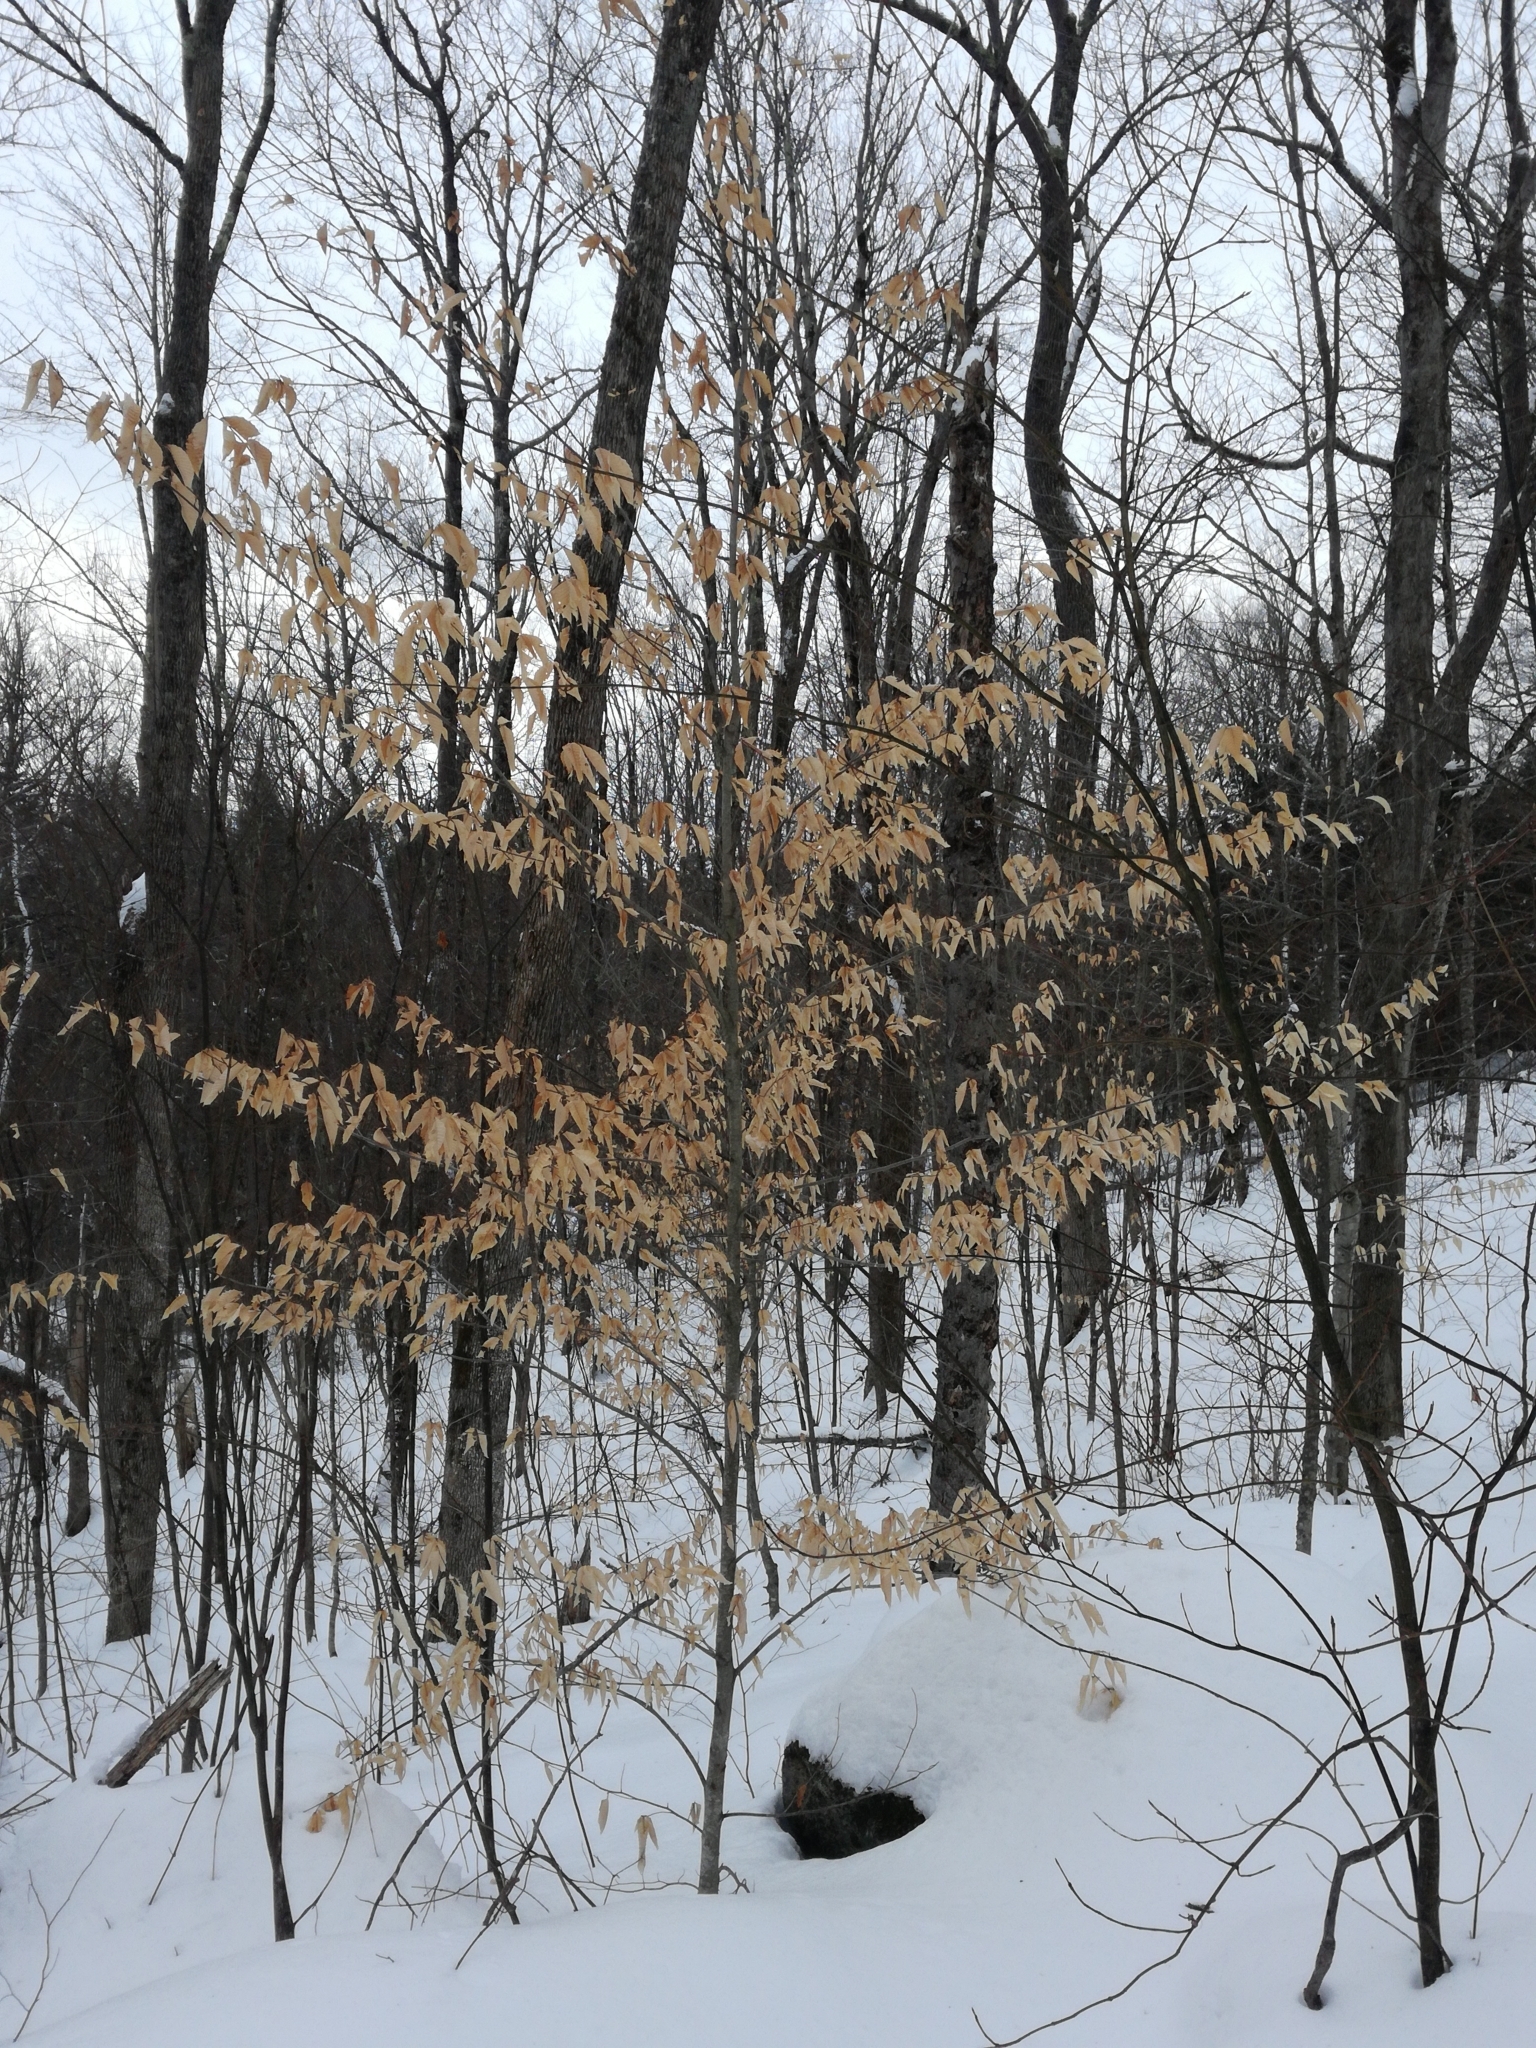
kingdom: Plantae
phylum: Tracheophyta
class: Magnoliopsida
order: Fagales
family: Fagaceae
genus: Fagus
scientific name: Fagus grandifolia
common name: American beech
